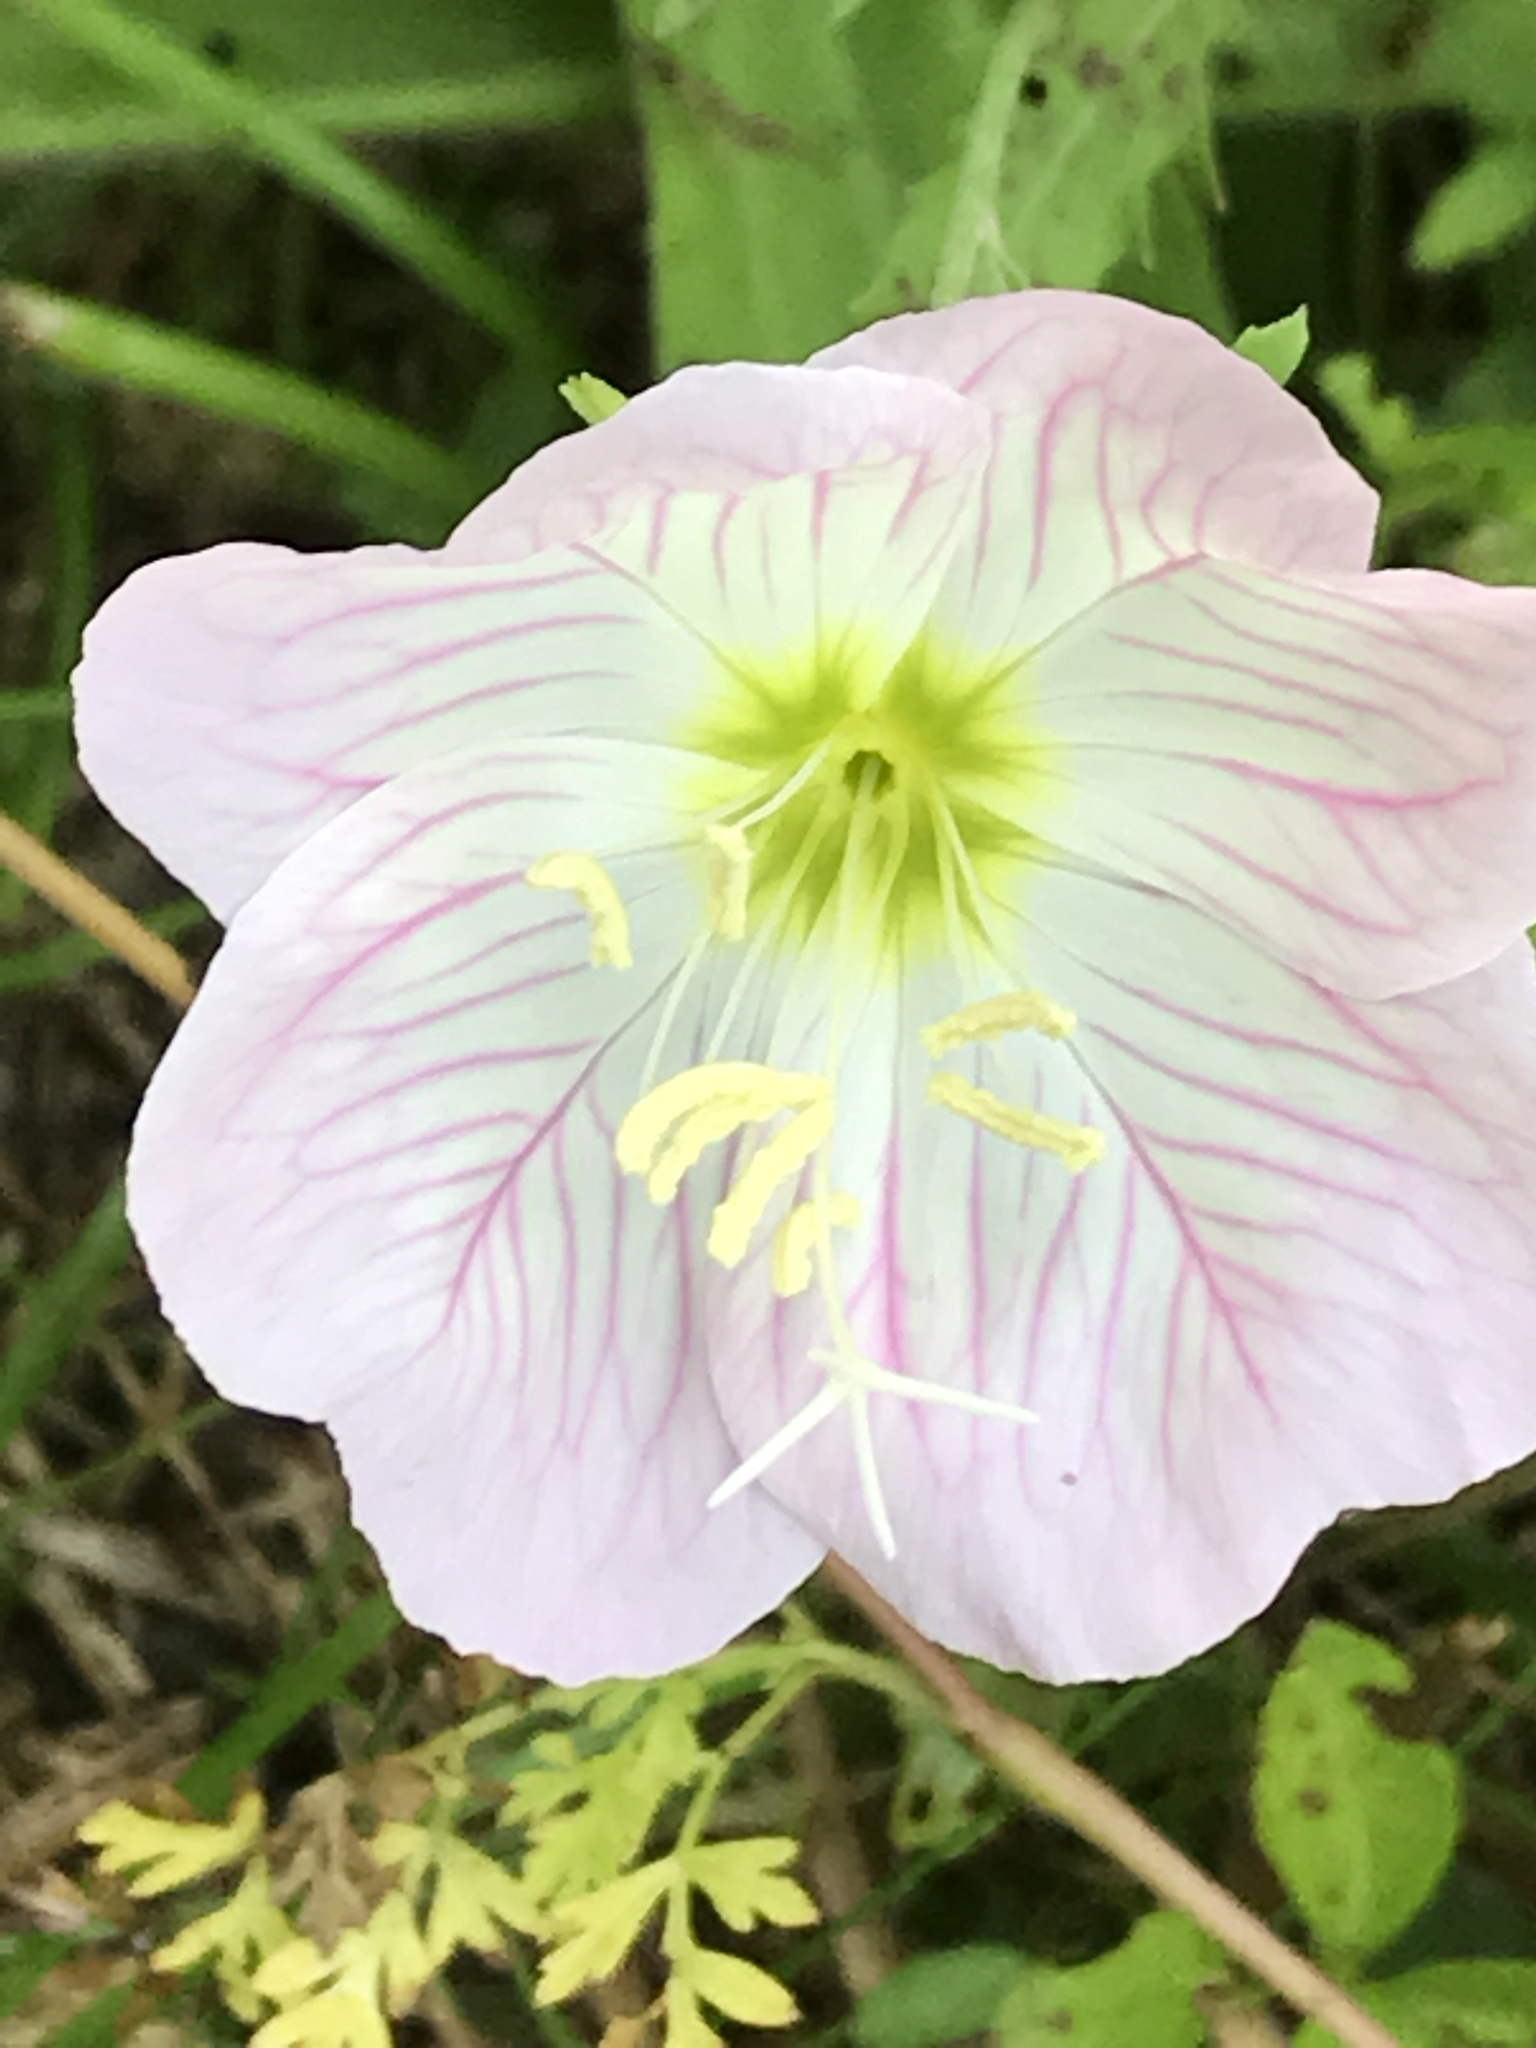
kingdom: Plantae
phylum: Tracheophyta
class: Magnoliopsida
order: Myrtales
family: Onagraceae
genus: Oenothera
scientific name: Oenothera speciosa
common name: White evening-primrose
